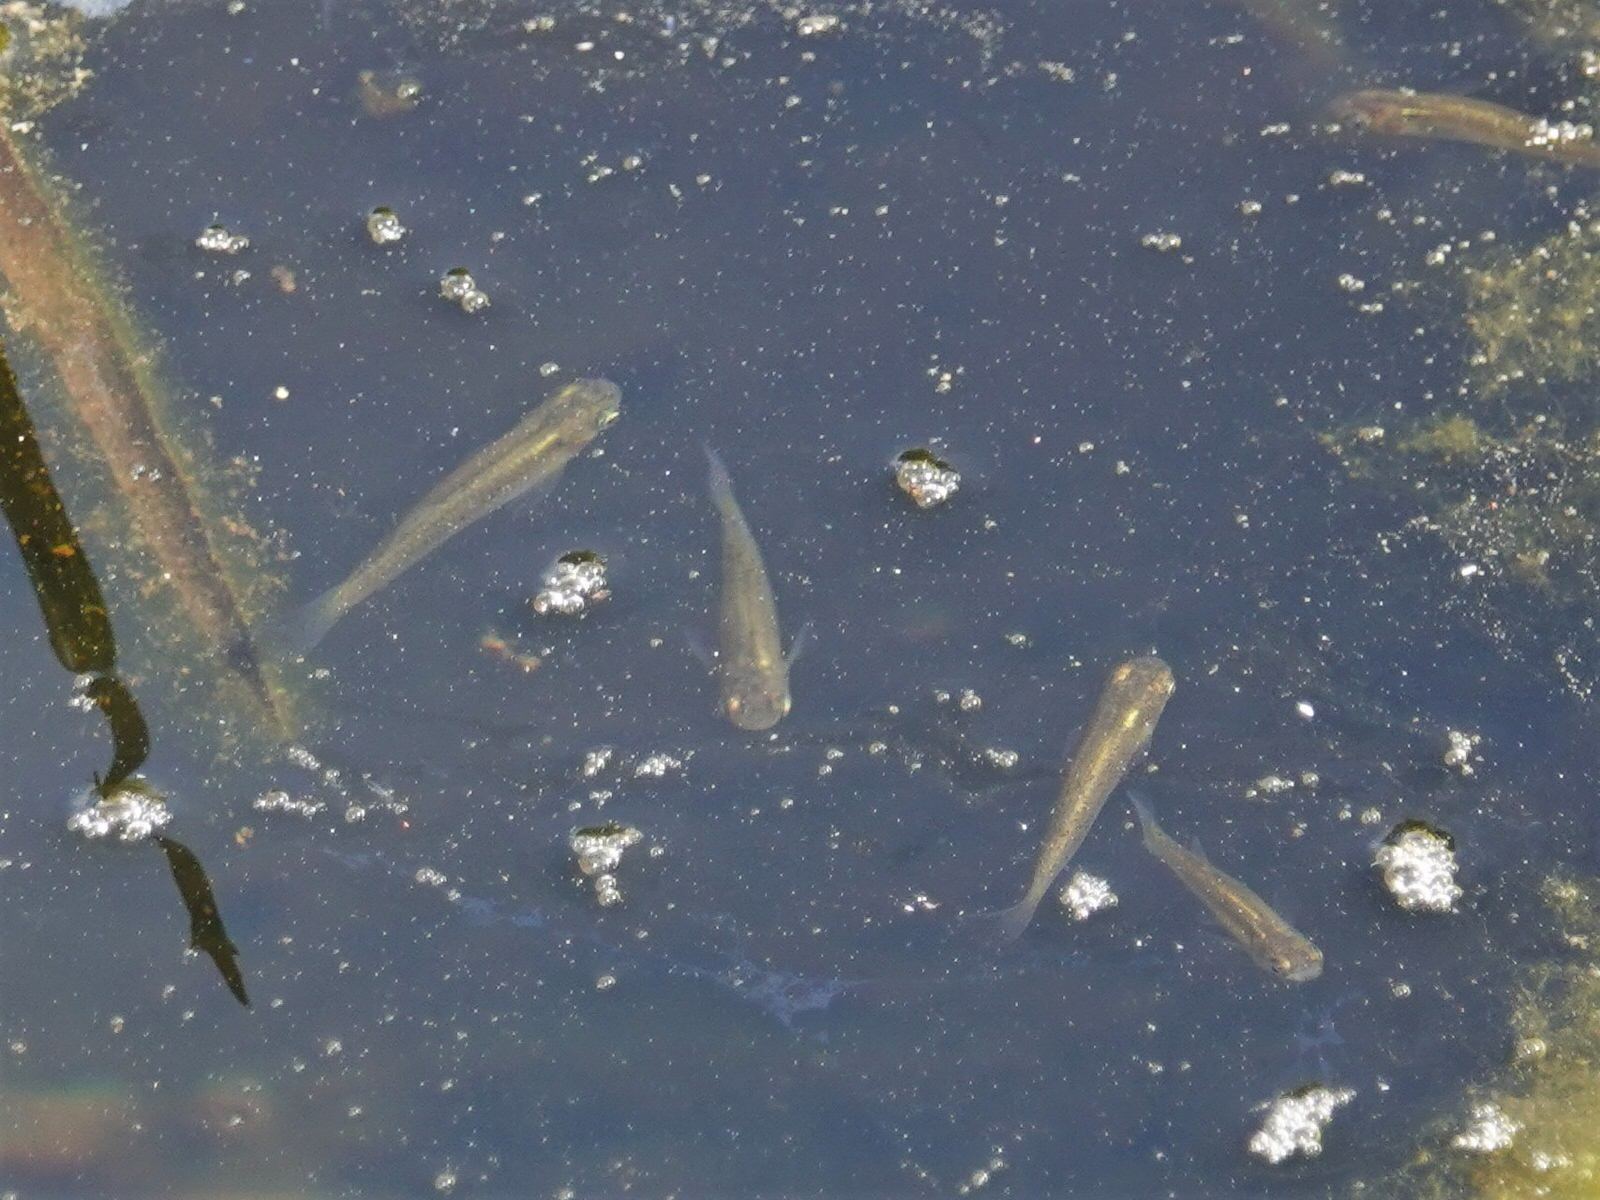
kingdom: Animalia
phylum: Chordata
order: Cyprinodontiformes
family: Poeciliidae
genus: Gambusia
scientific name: Gambusia affinis
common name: Mosquitofish
